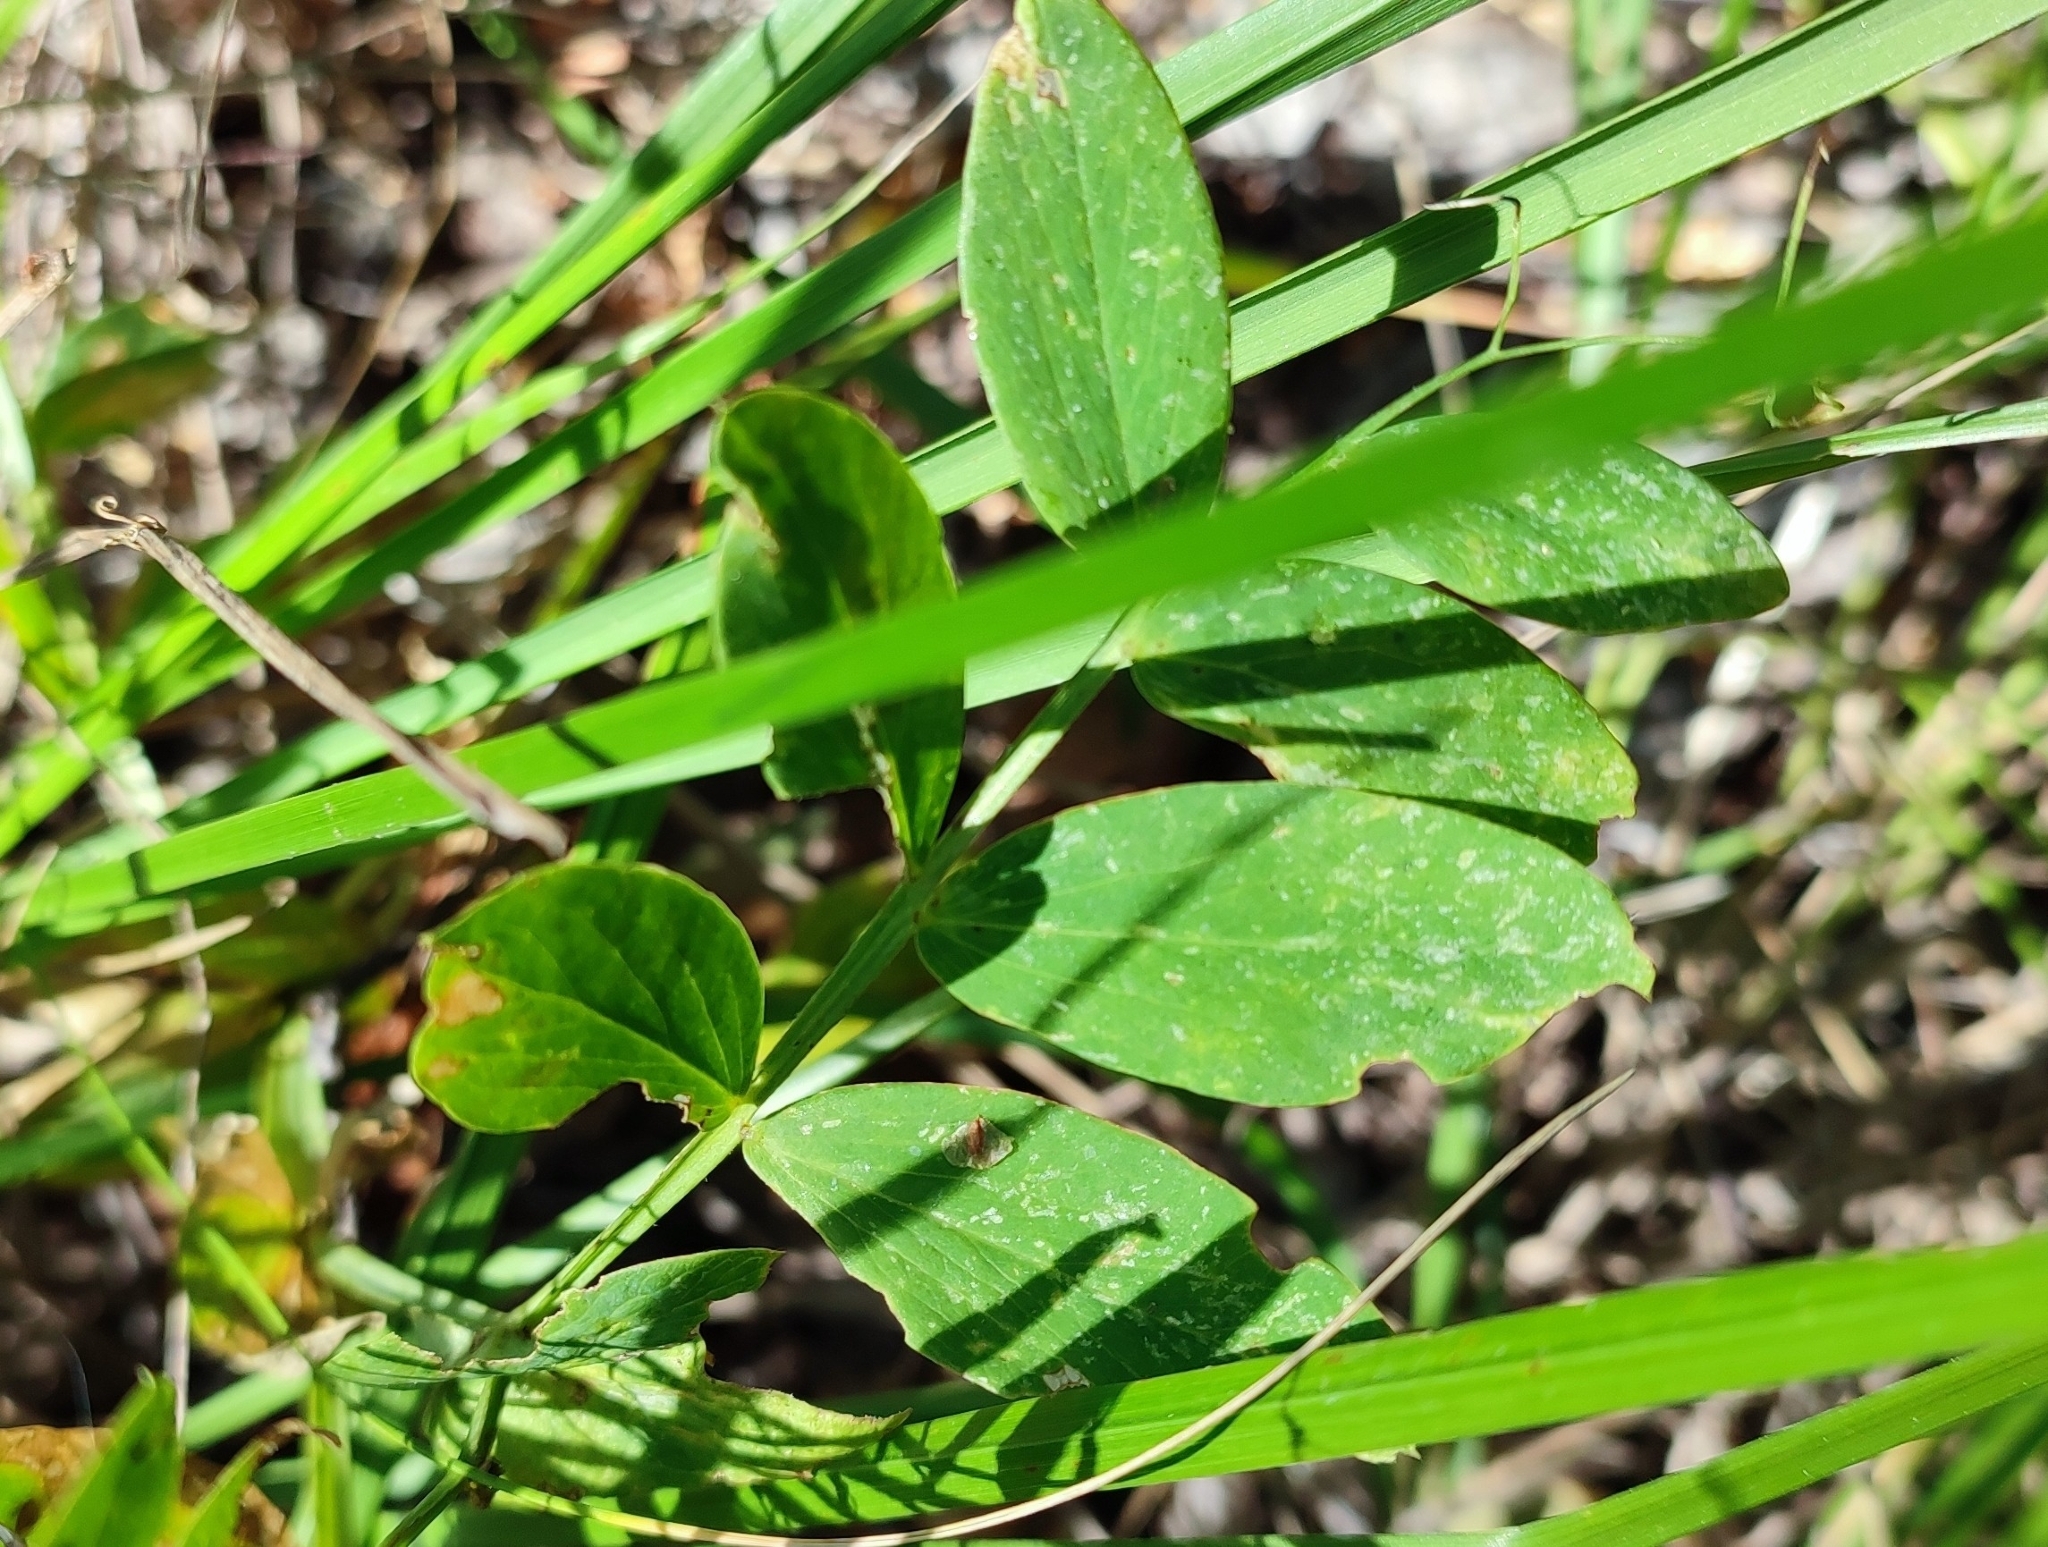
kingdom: Plantae
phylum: Tracheophyta
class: Magnoliopsida
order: Fabales
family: Fabaceae
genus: Lathyrus
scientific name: Lathyrus pisiformis
